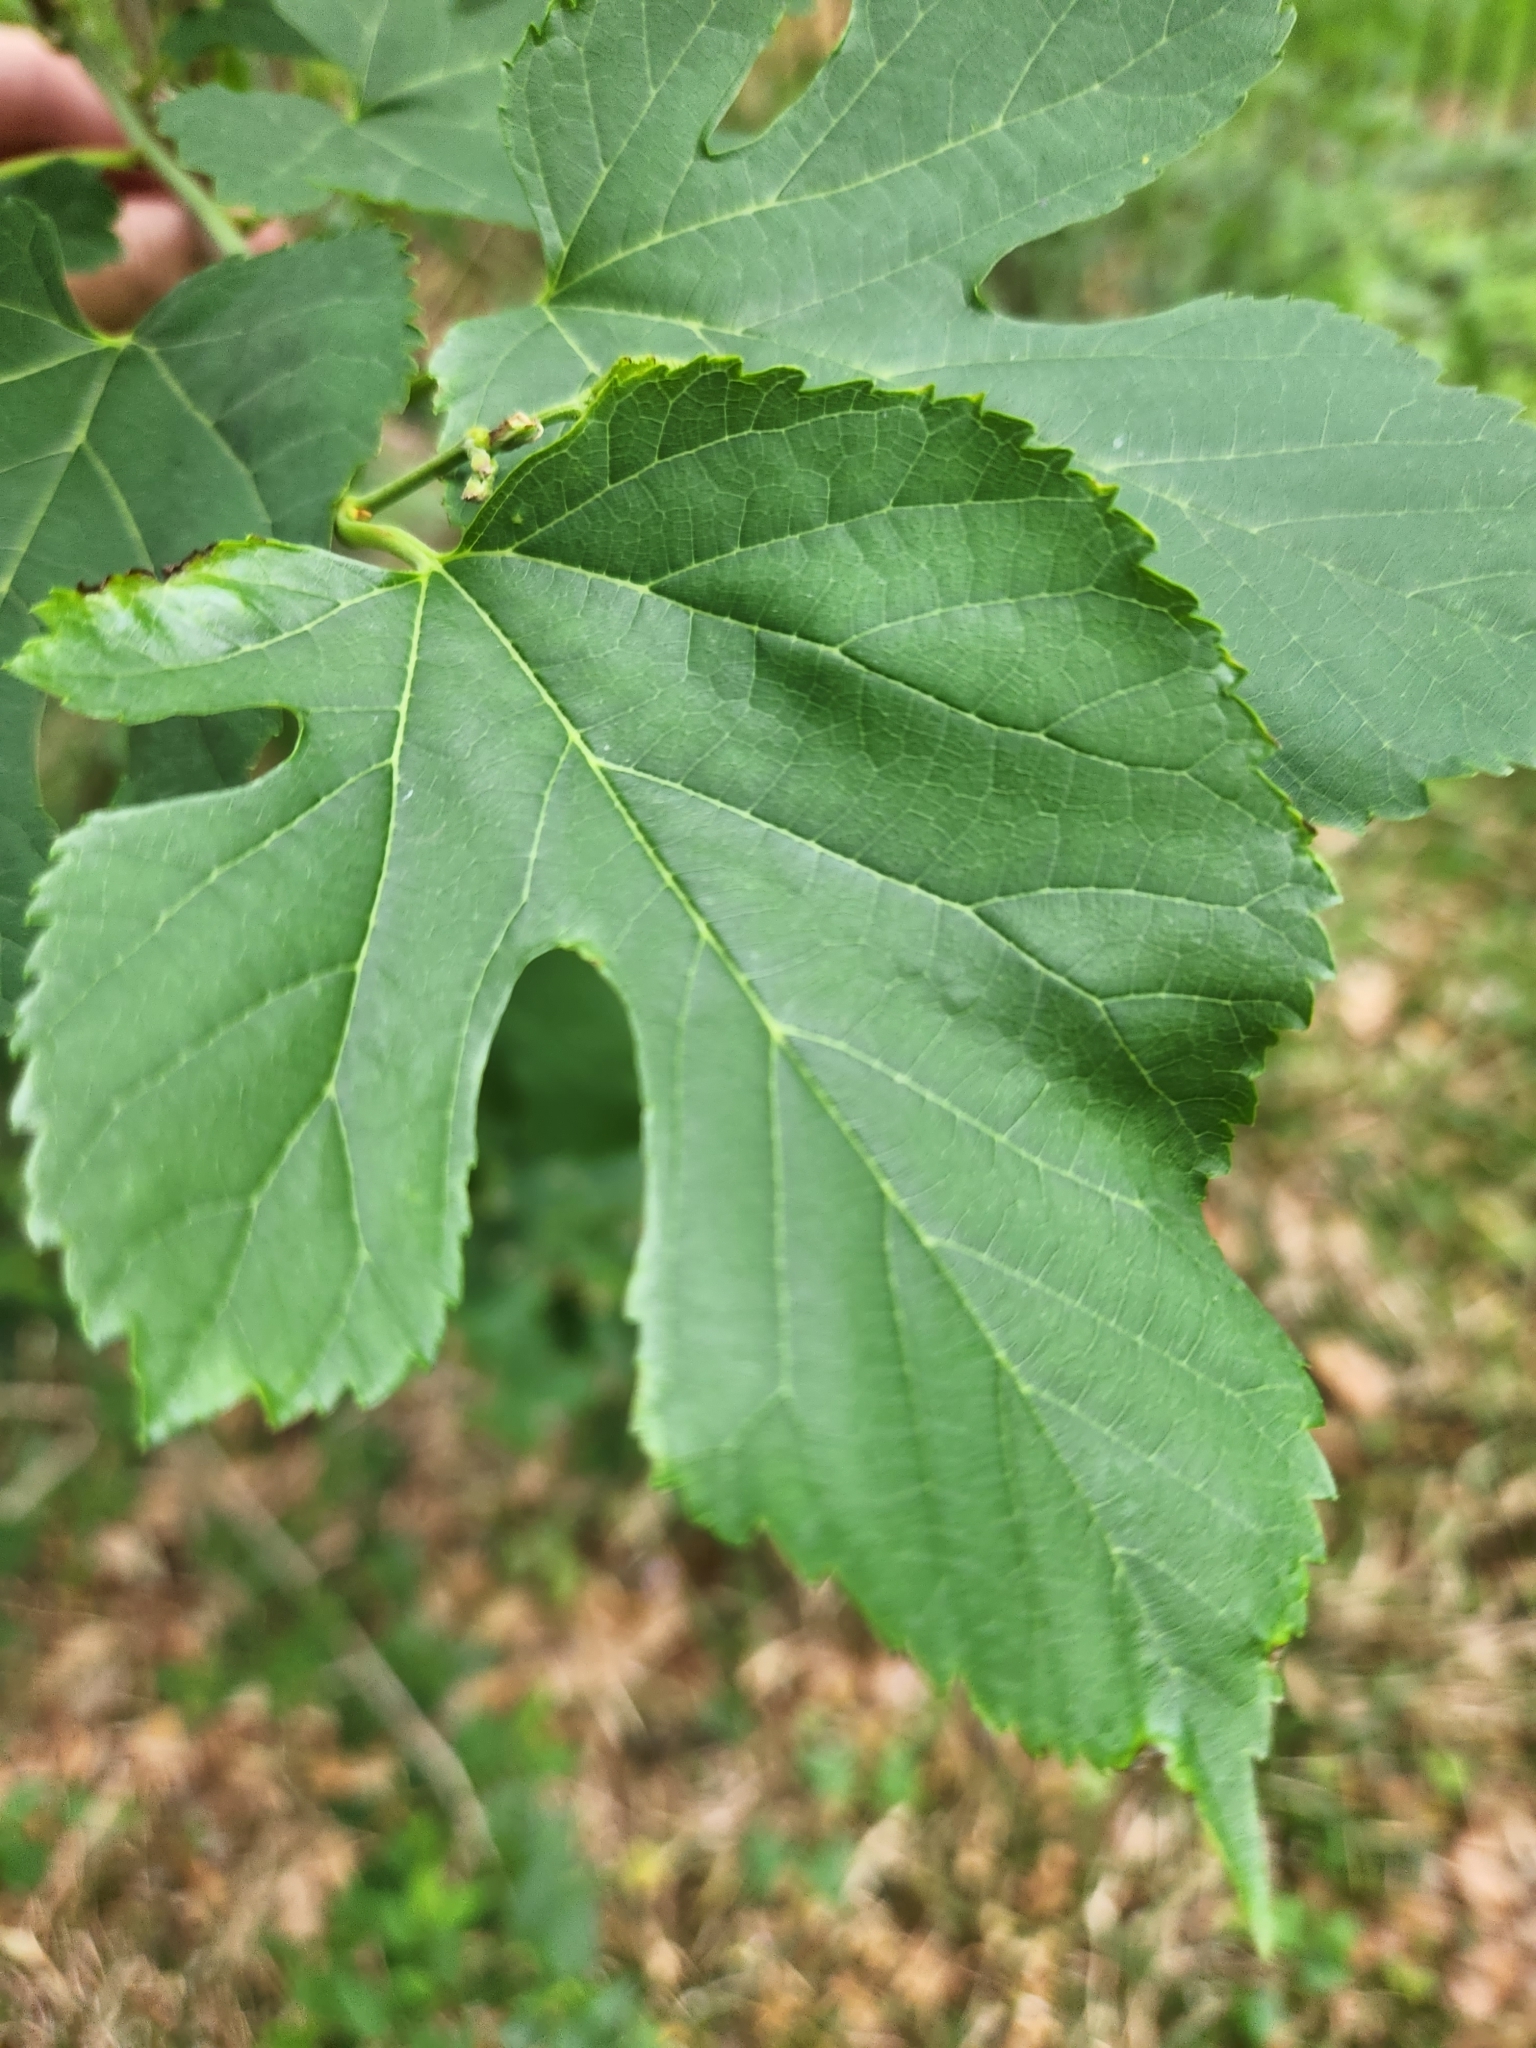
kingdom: Plantae
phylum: Tracheophyta
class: Magnoliopsida
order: Rosales
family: Moraceae
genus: Morus
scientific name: Morus alba
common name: White mulberry
